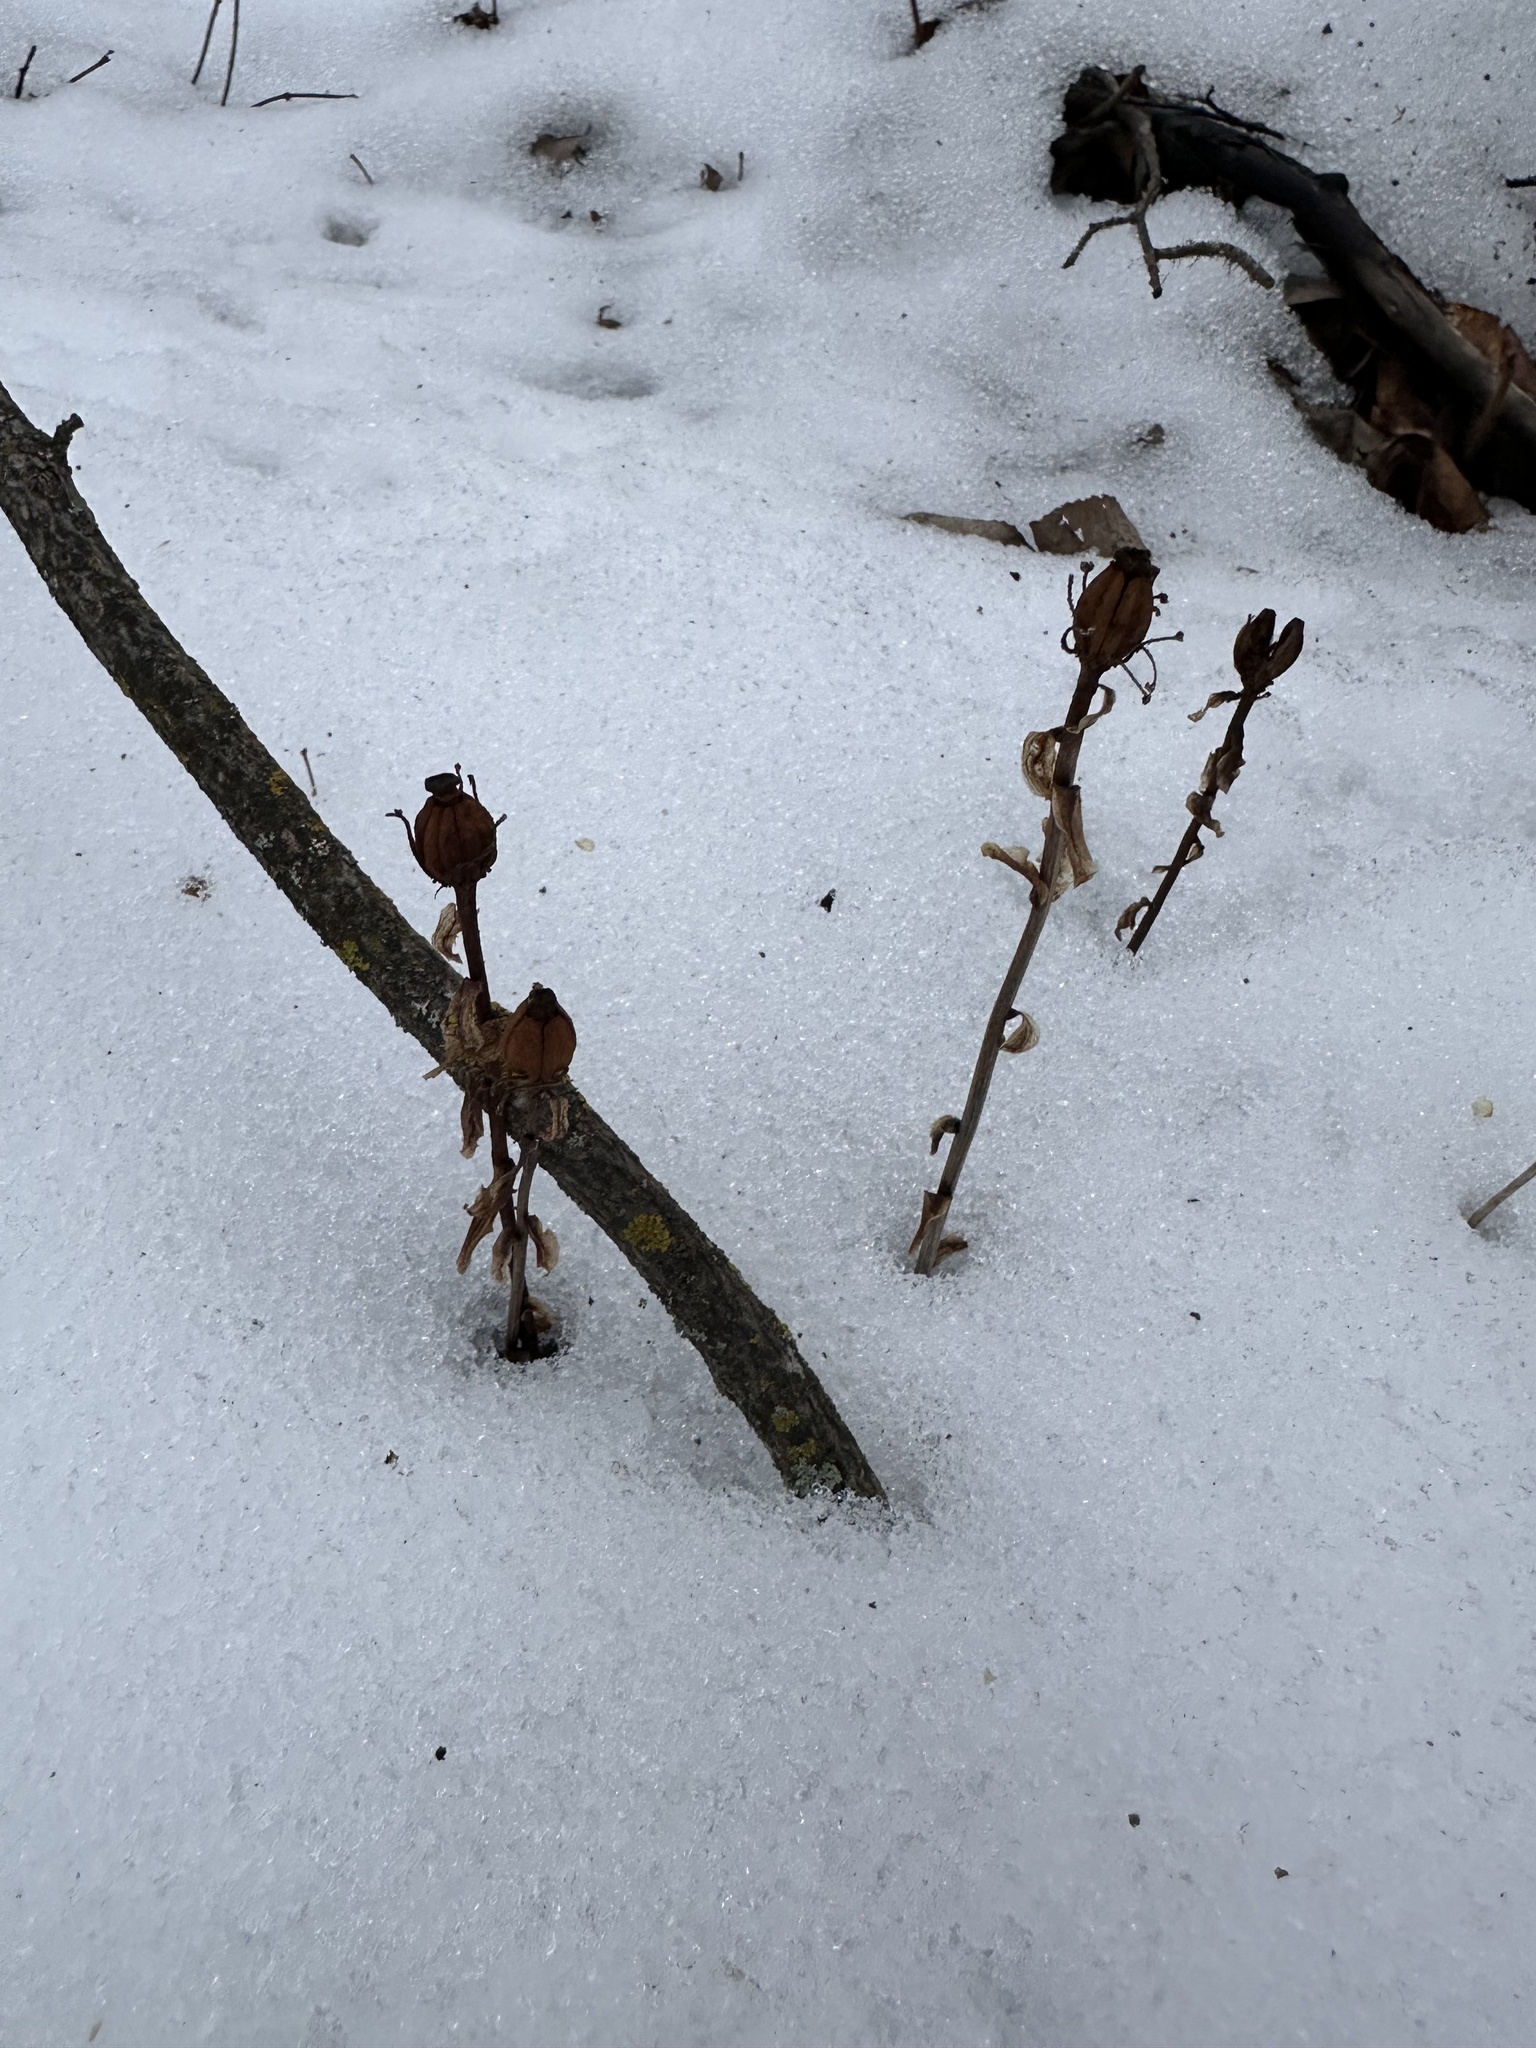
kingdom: Plantae
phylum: Tracheophyta
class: Magnoliopsida
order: Ericales
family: Ericaceae
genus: Monotropa
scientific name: Monotropa uniflora
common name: Convulsion root
